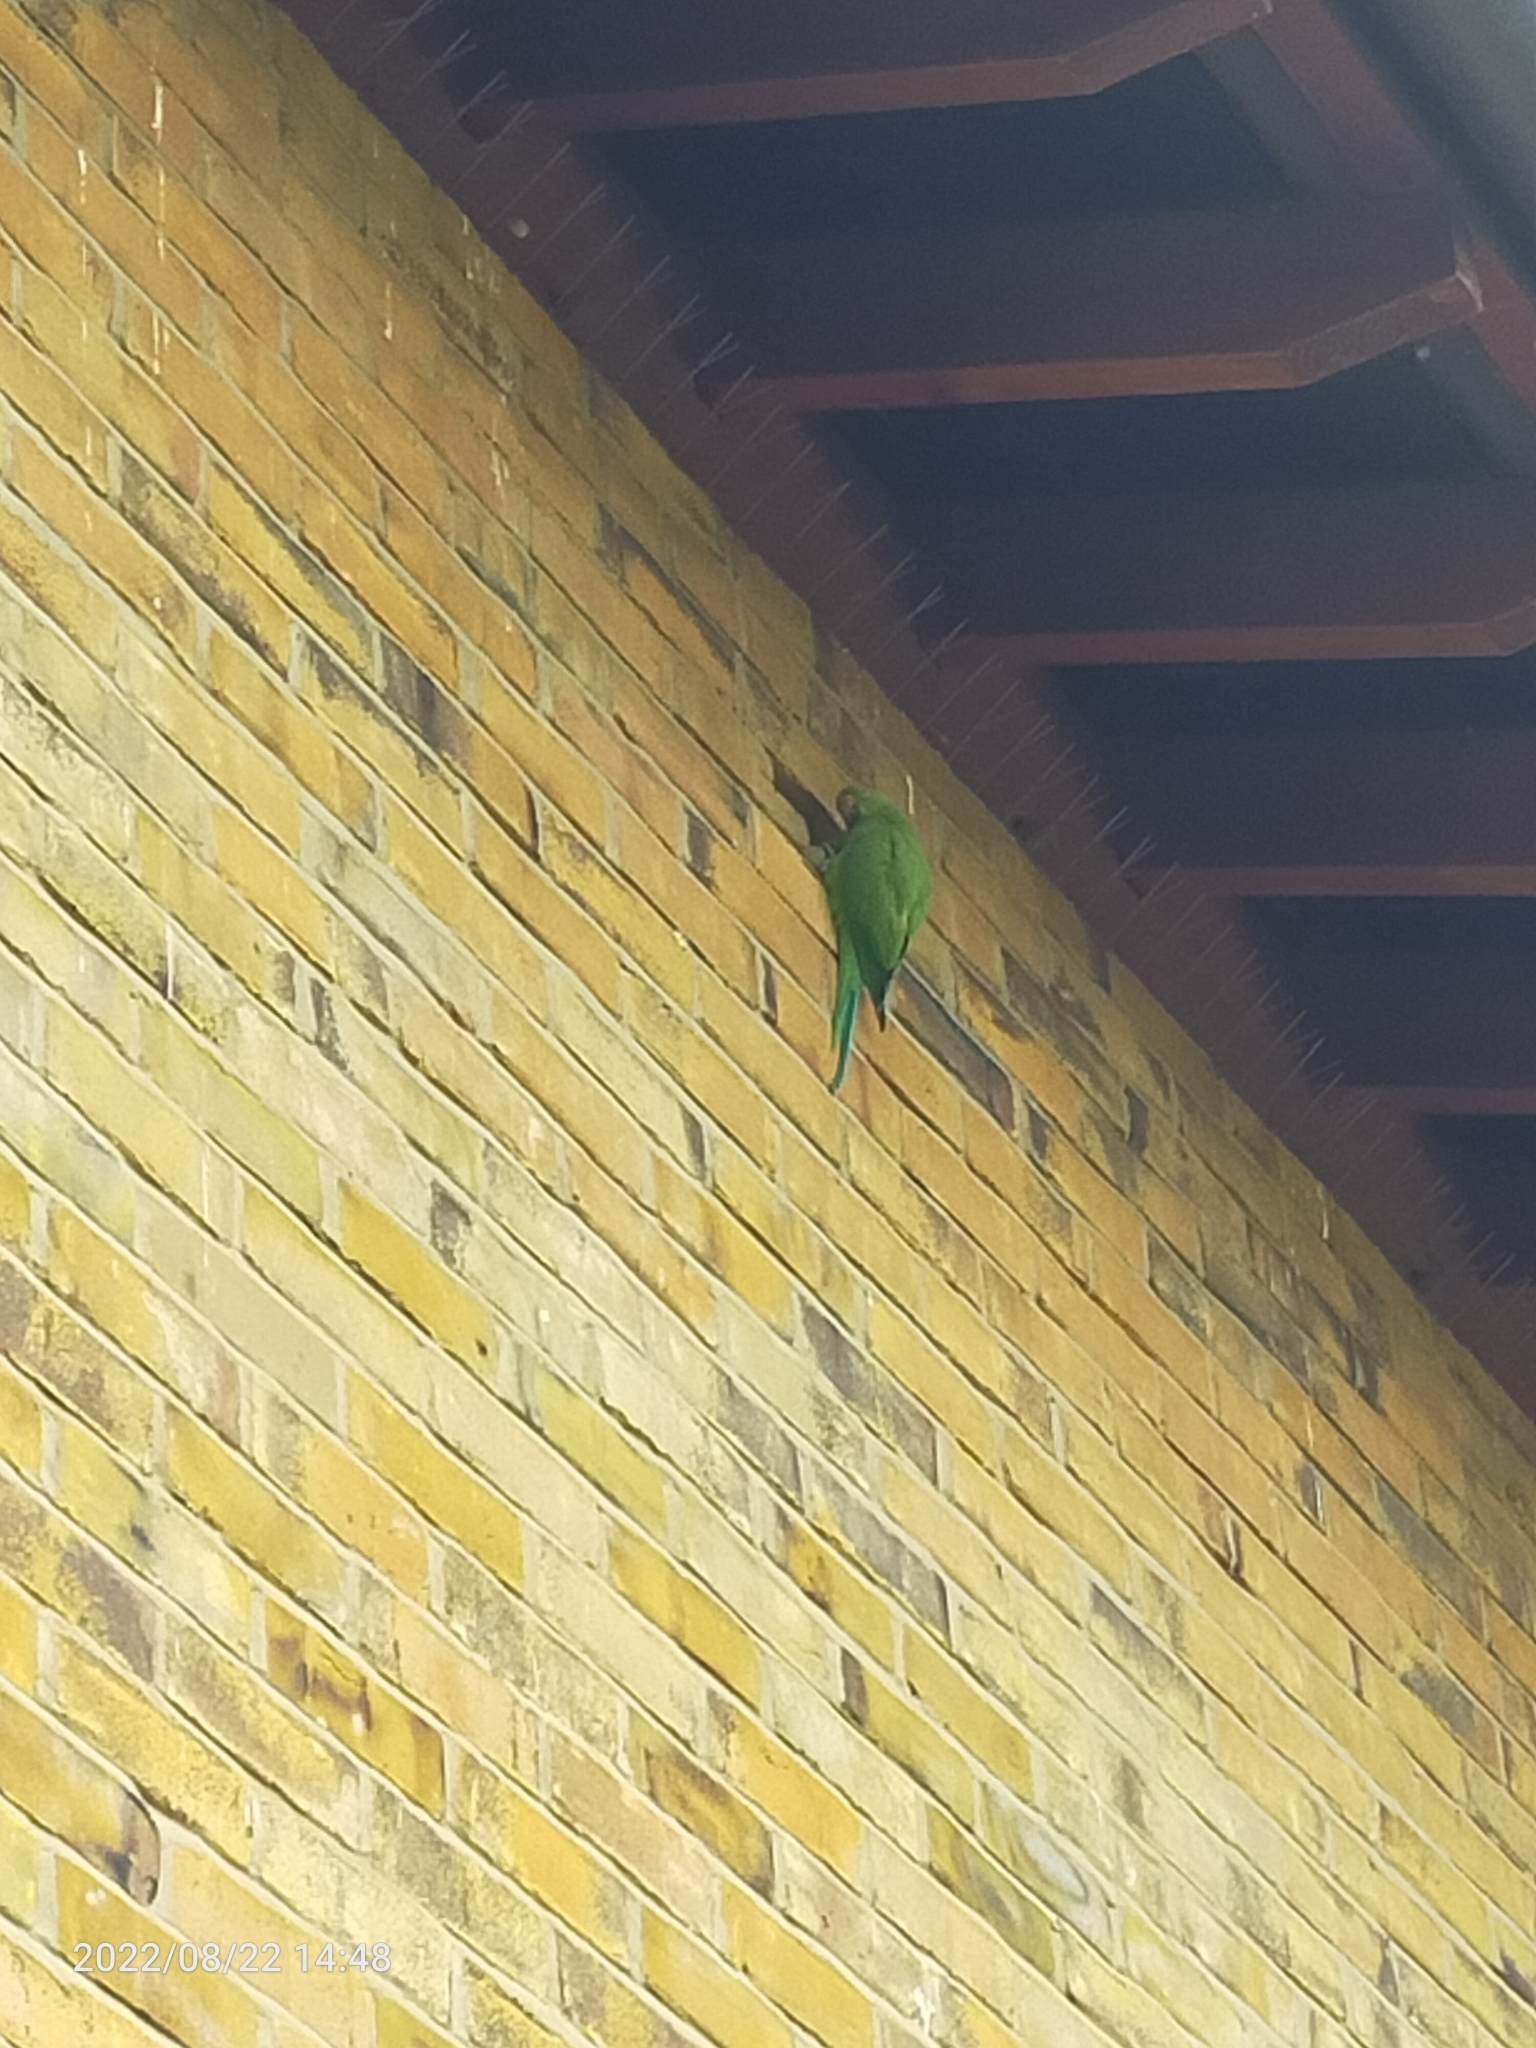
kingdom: Animalia
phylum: Chordata
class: Aves
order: Psittaciformes
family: Psittacidae
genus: Psittacula
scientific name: Psittacula krameri
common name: Rose-ringed parakeet
